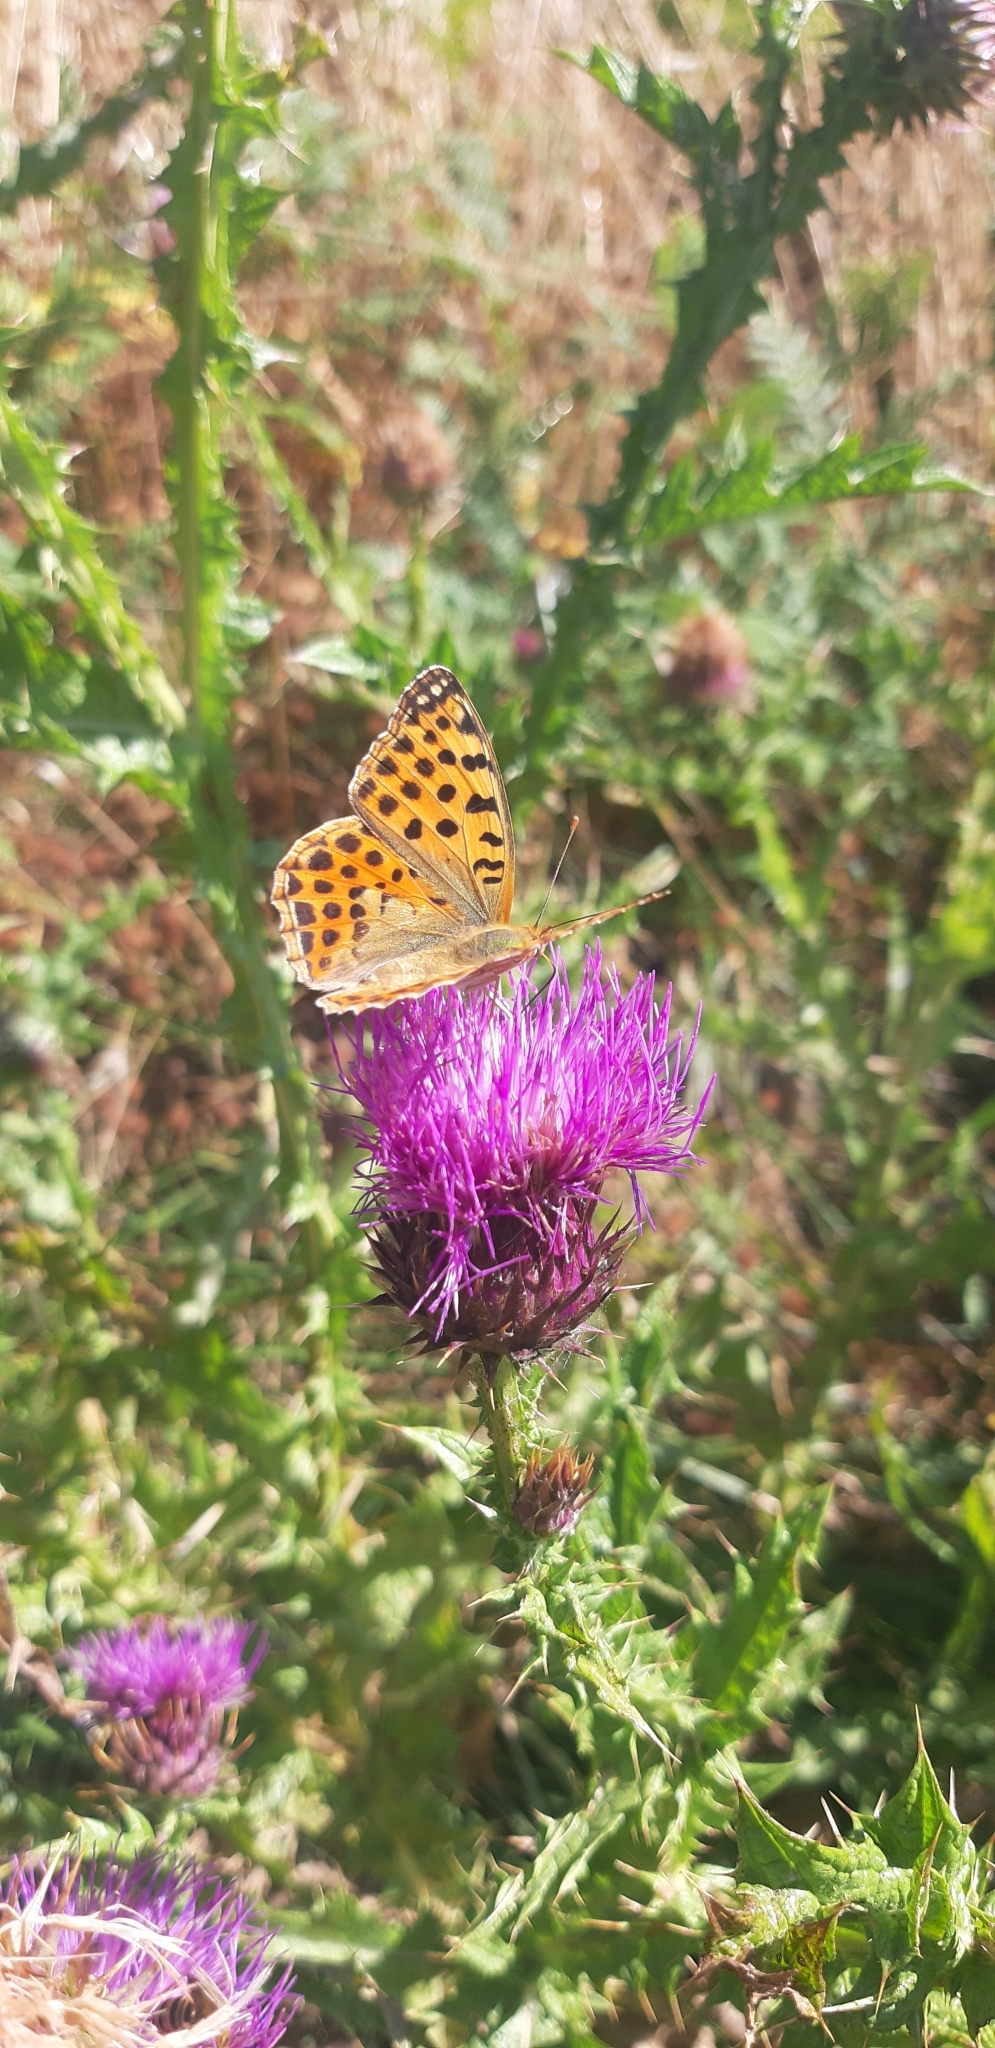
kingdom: Animalia
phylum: Arthropoda
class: Insecta
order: Lepidoptera
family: Nymphalidae
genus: Issoria
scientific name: Issoria lathonia
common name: Queen of spain fritillary
